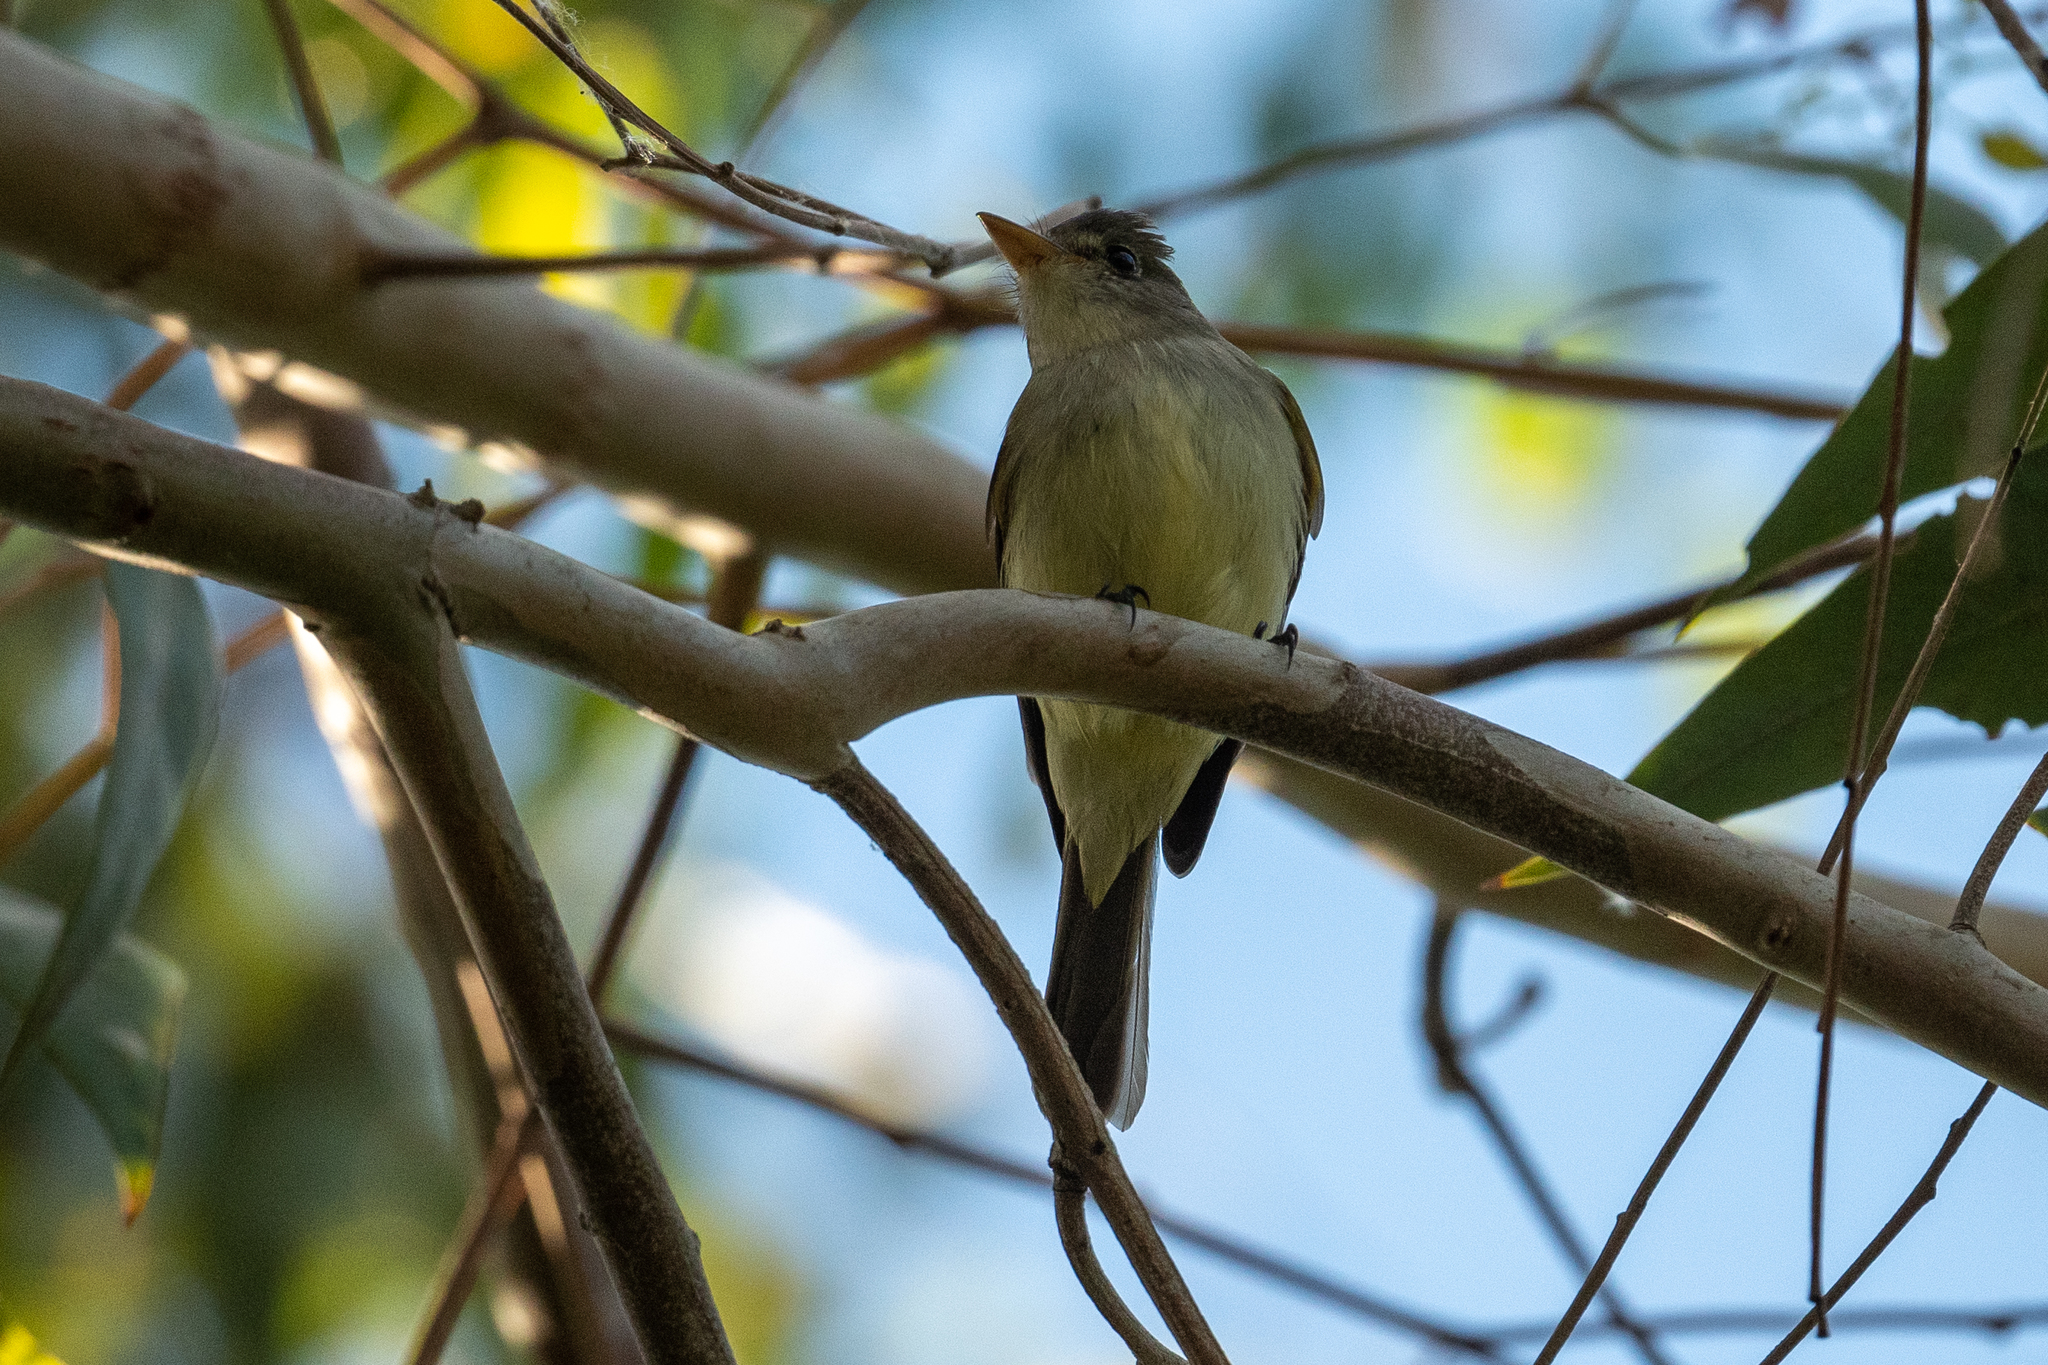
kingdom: Animalia
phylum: Chordata
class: Aves
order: Passeriformes
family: Tyrannidae
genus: Empidonax
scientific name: Empidonax traillii
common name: Willow flycatcher
